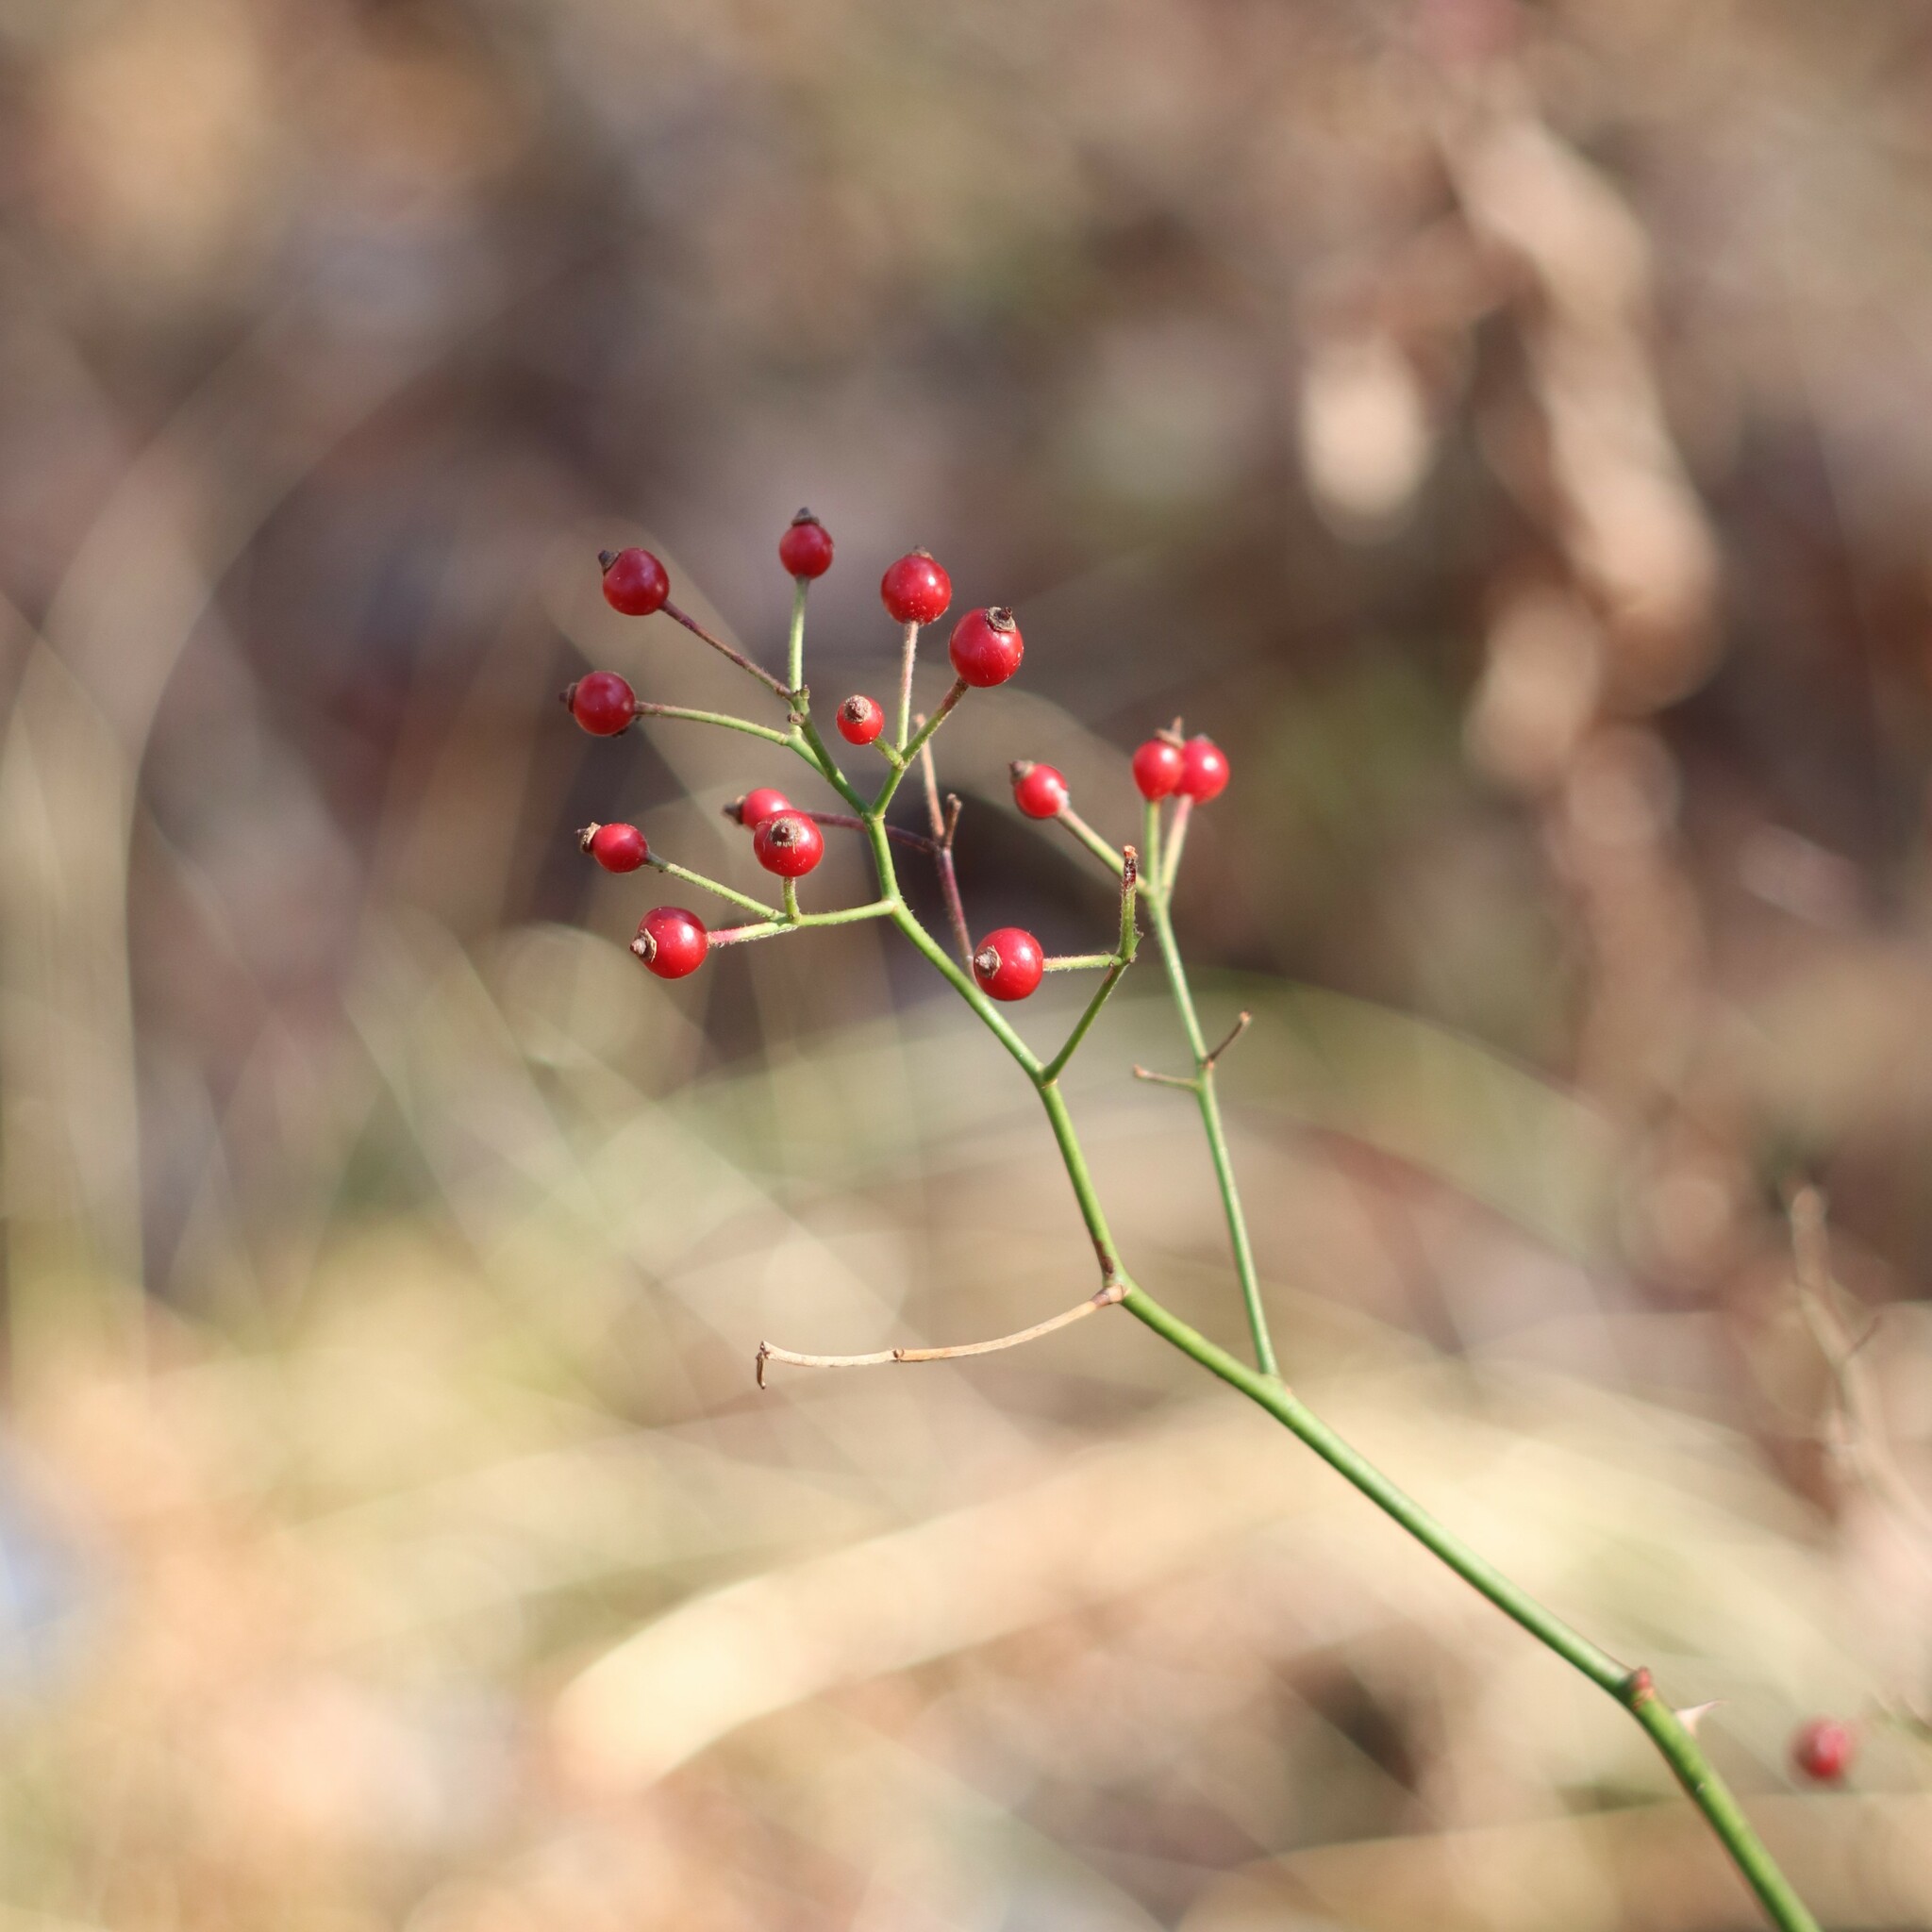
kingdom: Plantae
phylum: Tracheophyta
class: Magnoliopsida
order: Rosales
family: Rosaceae
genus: Rosa
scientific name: Rosa multiflora
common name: Multiflora rose
